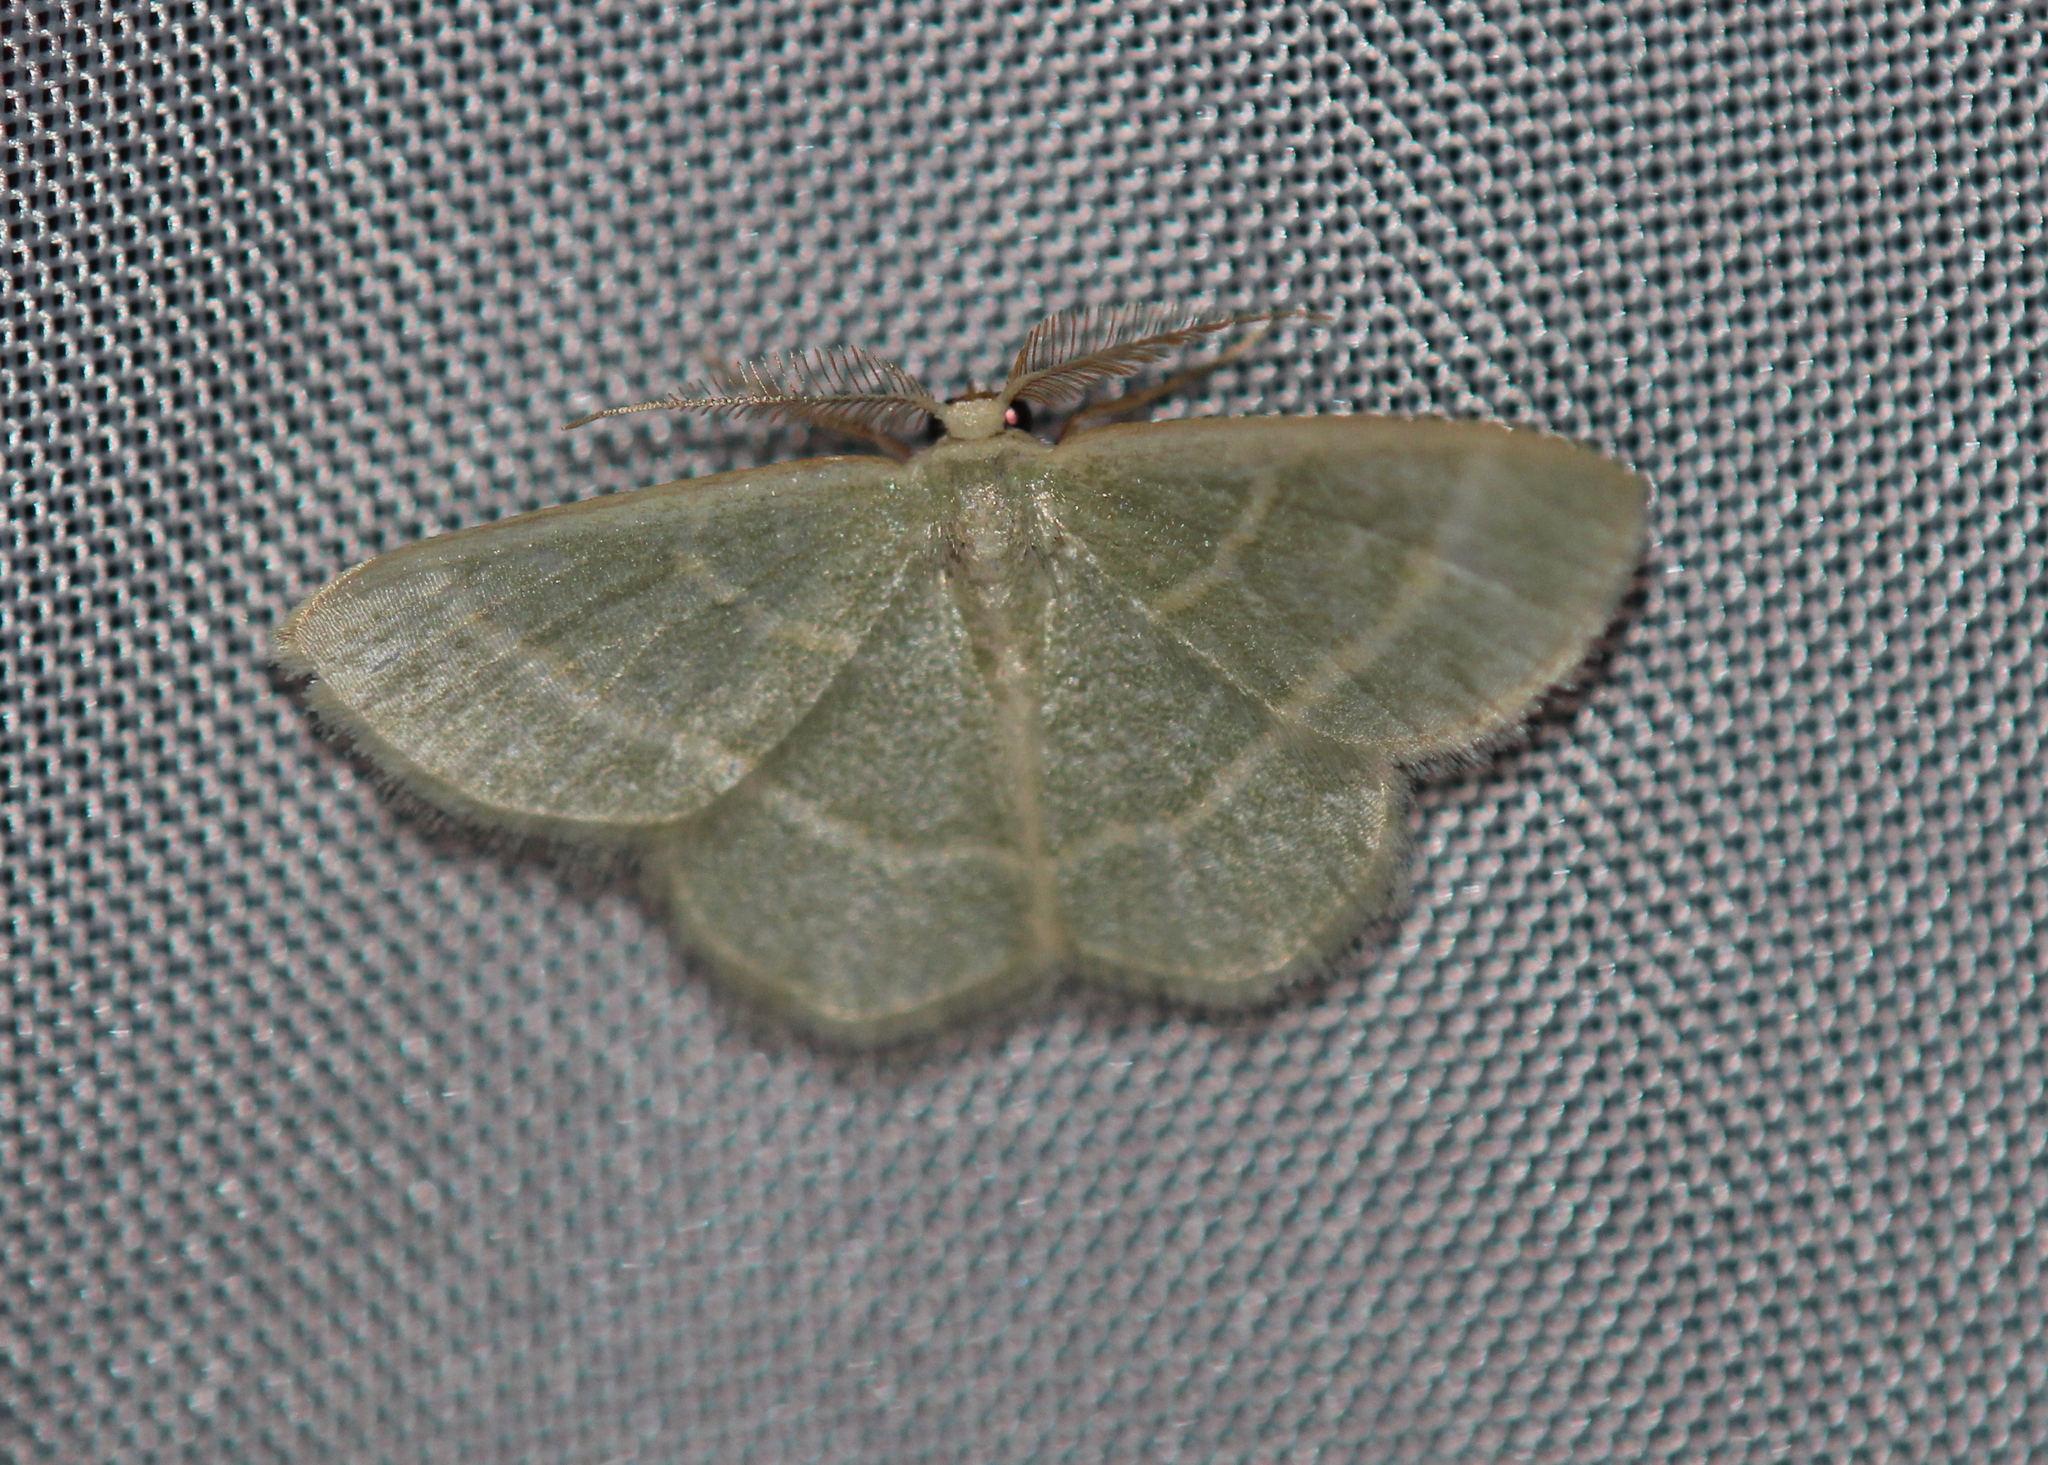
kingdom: Animalia
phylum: Arthropoda
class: Insecta
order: Lepidoptera
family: Geometridae
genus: Chlorochlamys
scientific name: Chlorochlamys chloroleucaria
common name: Blackberry looper
